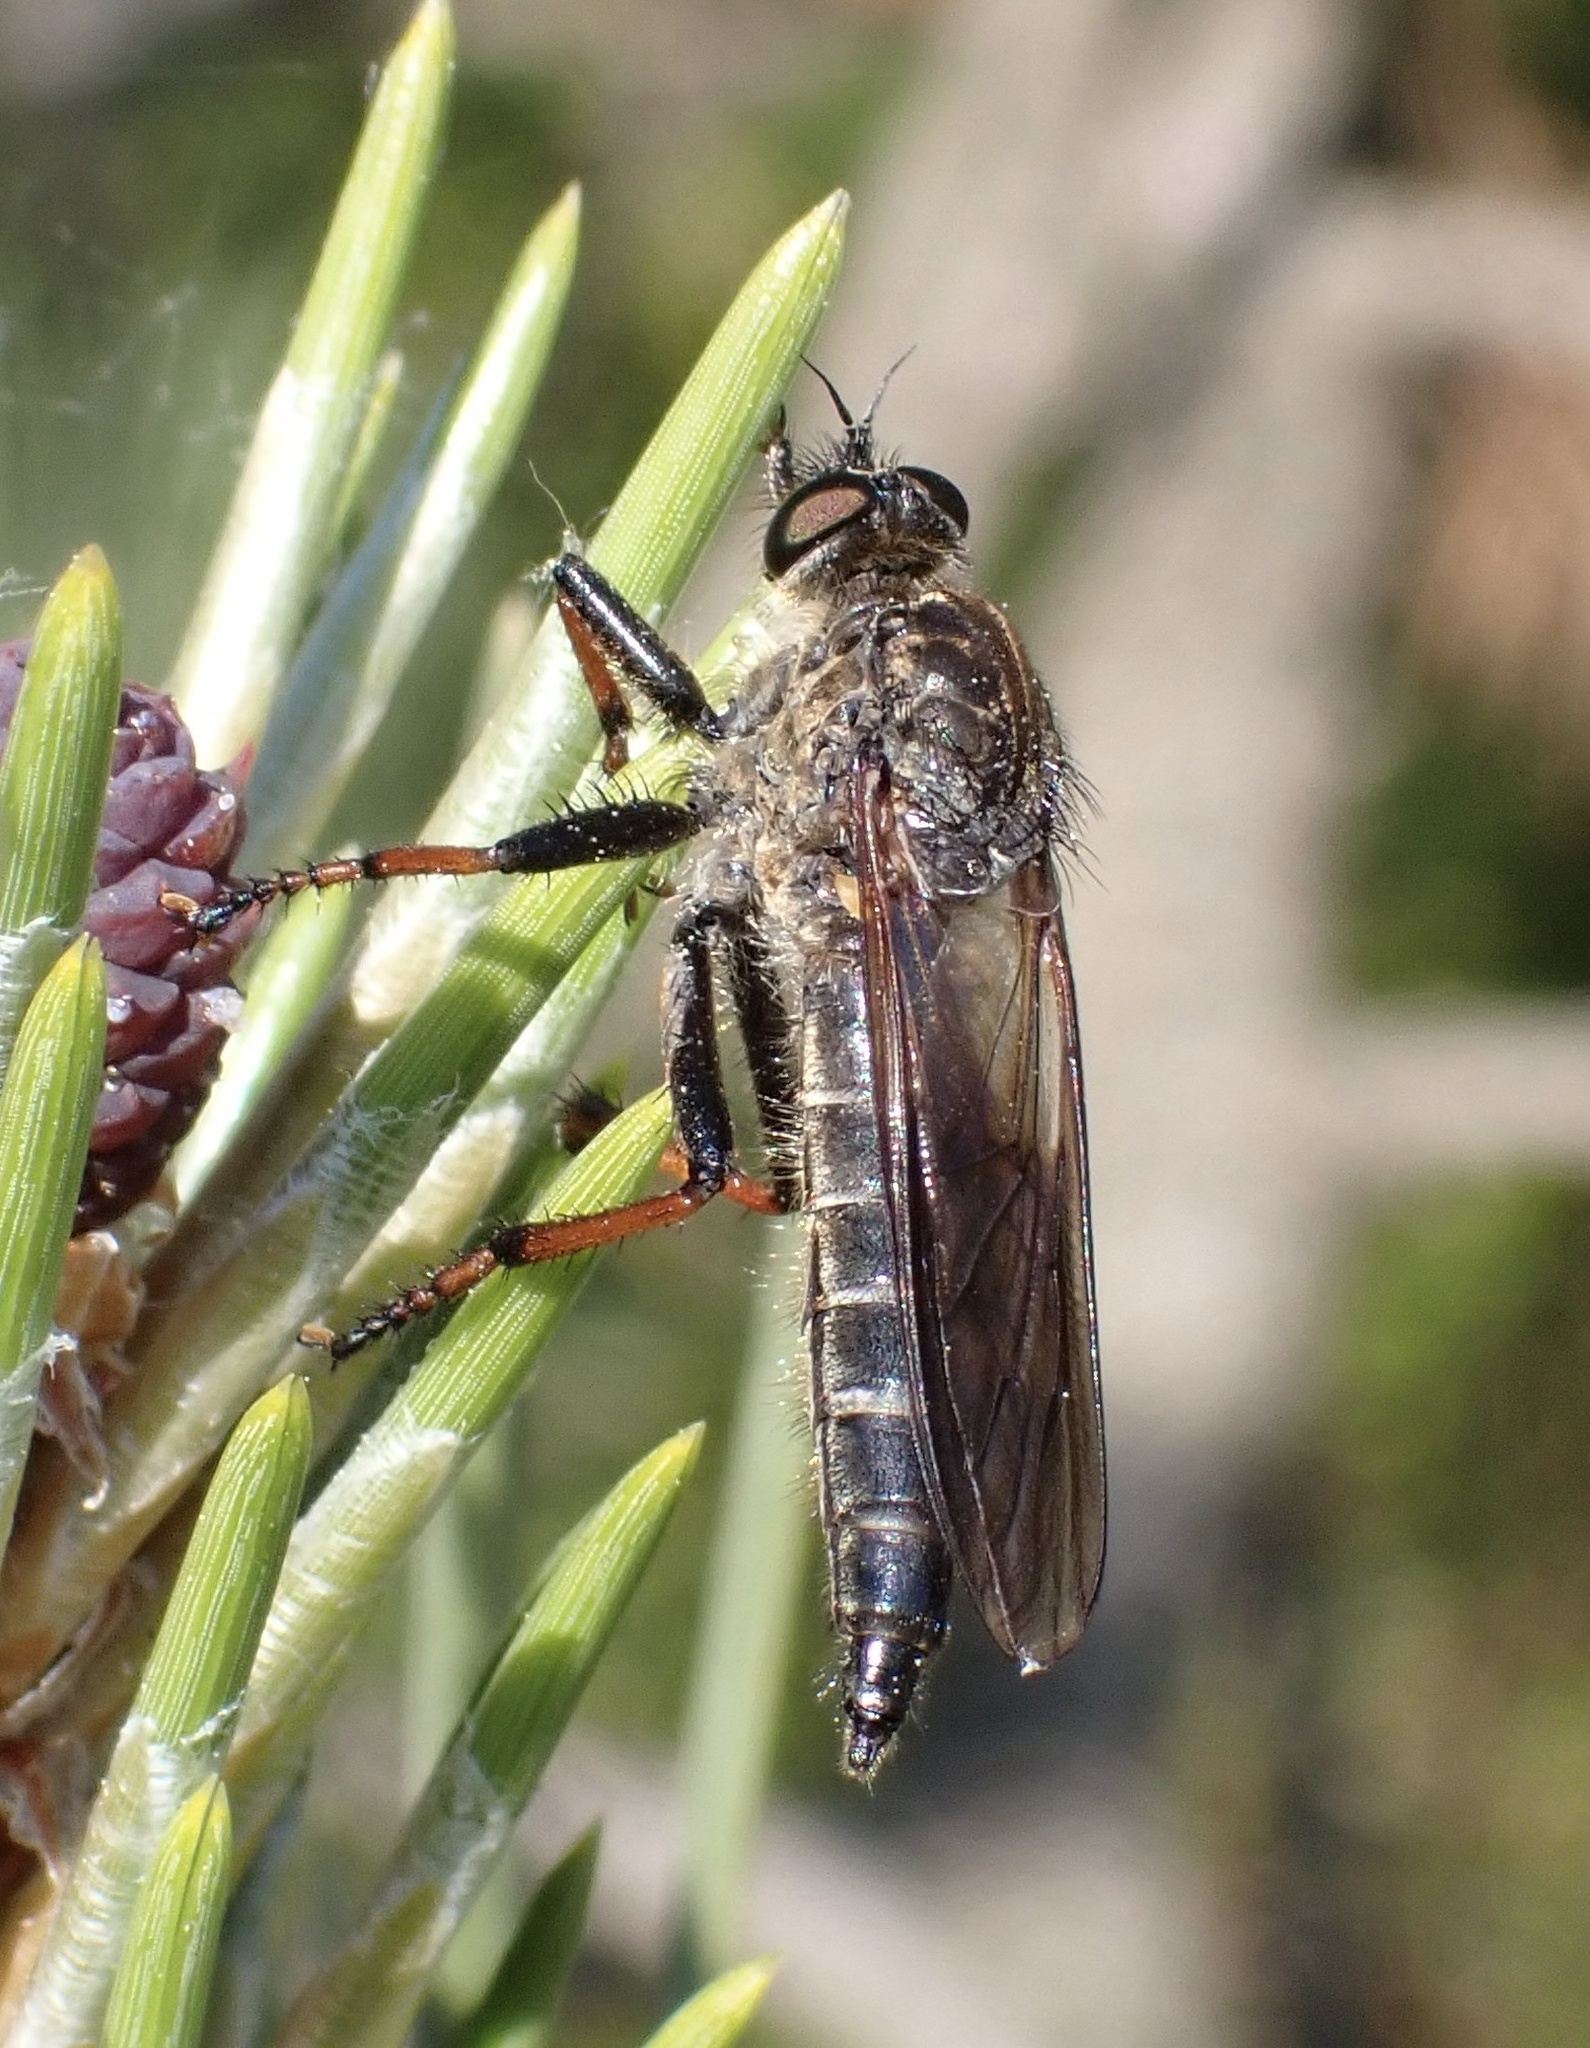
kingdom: Animalia
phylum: Arthropoda
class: Insecta
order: Diptera
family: Asilidae
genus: Pamponerus
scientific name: Pamponerus germanicus
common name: Pied-winged robberfly
